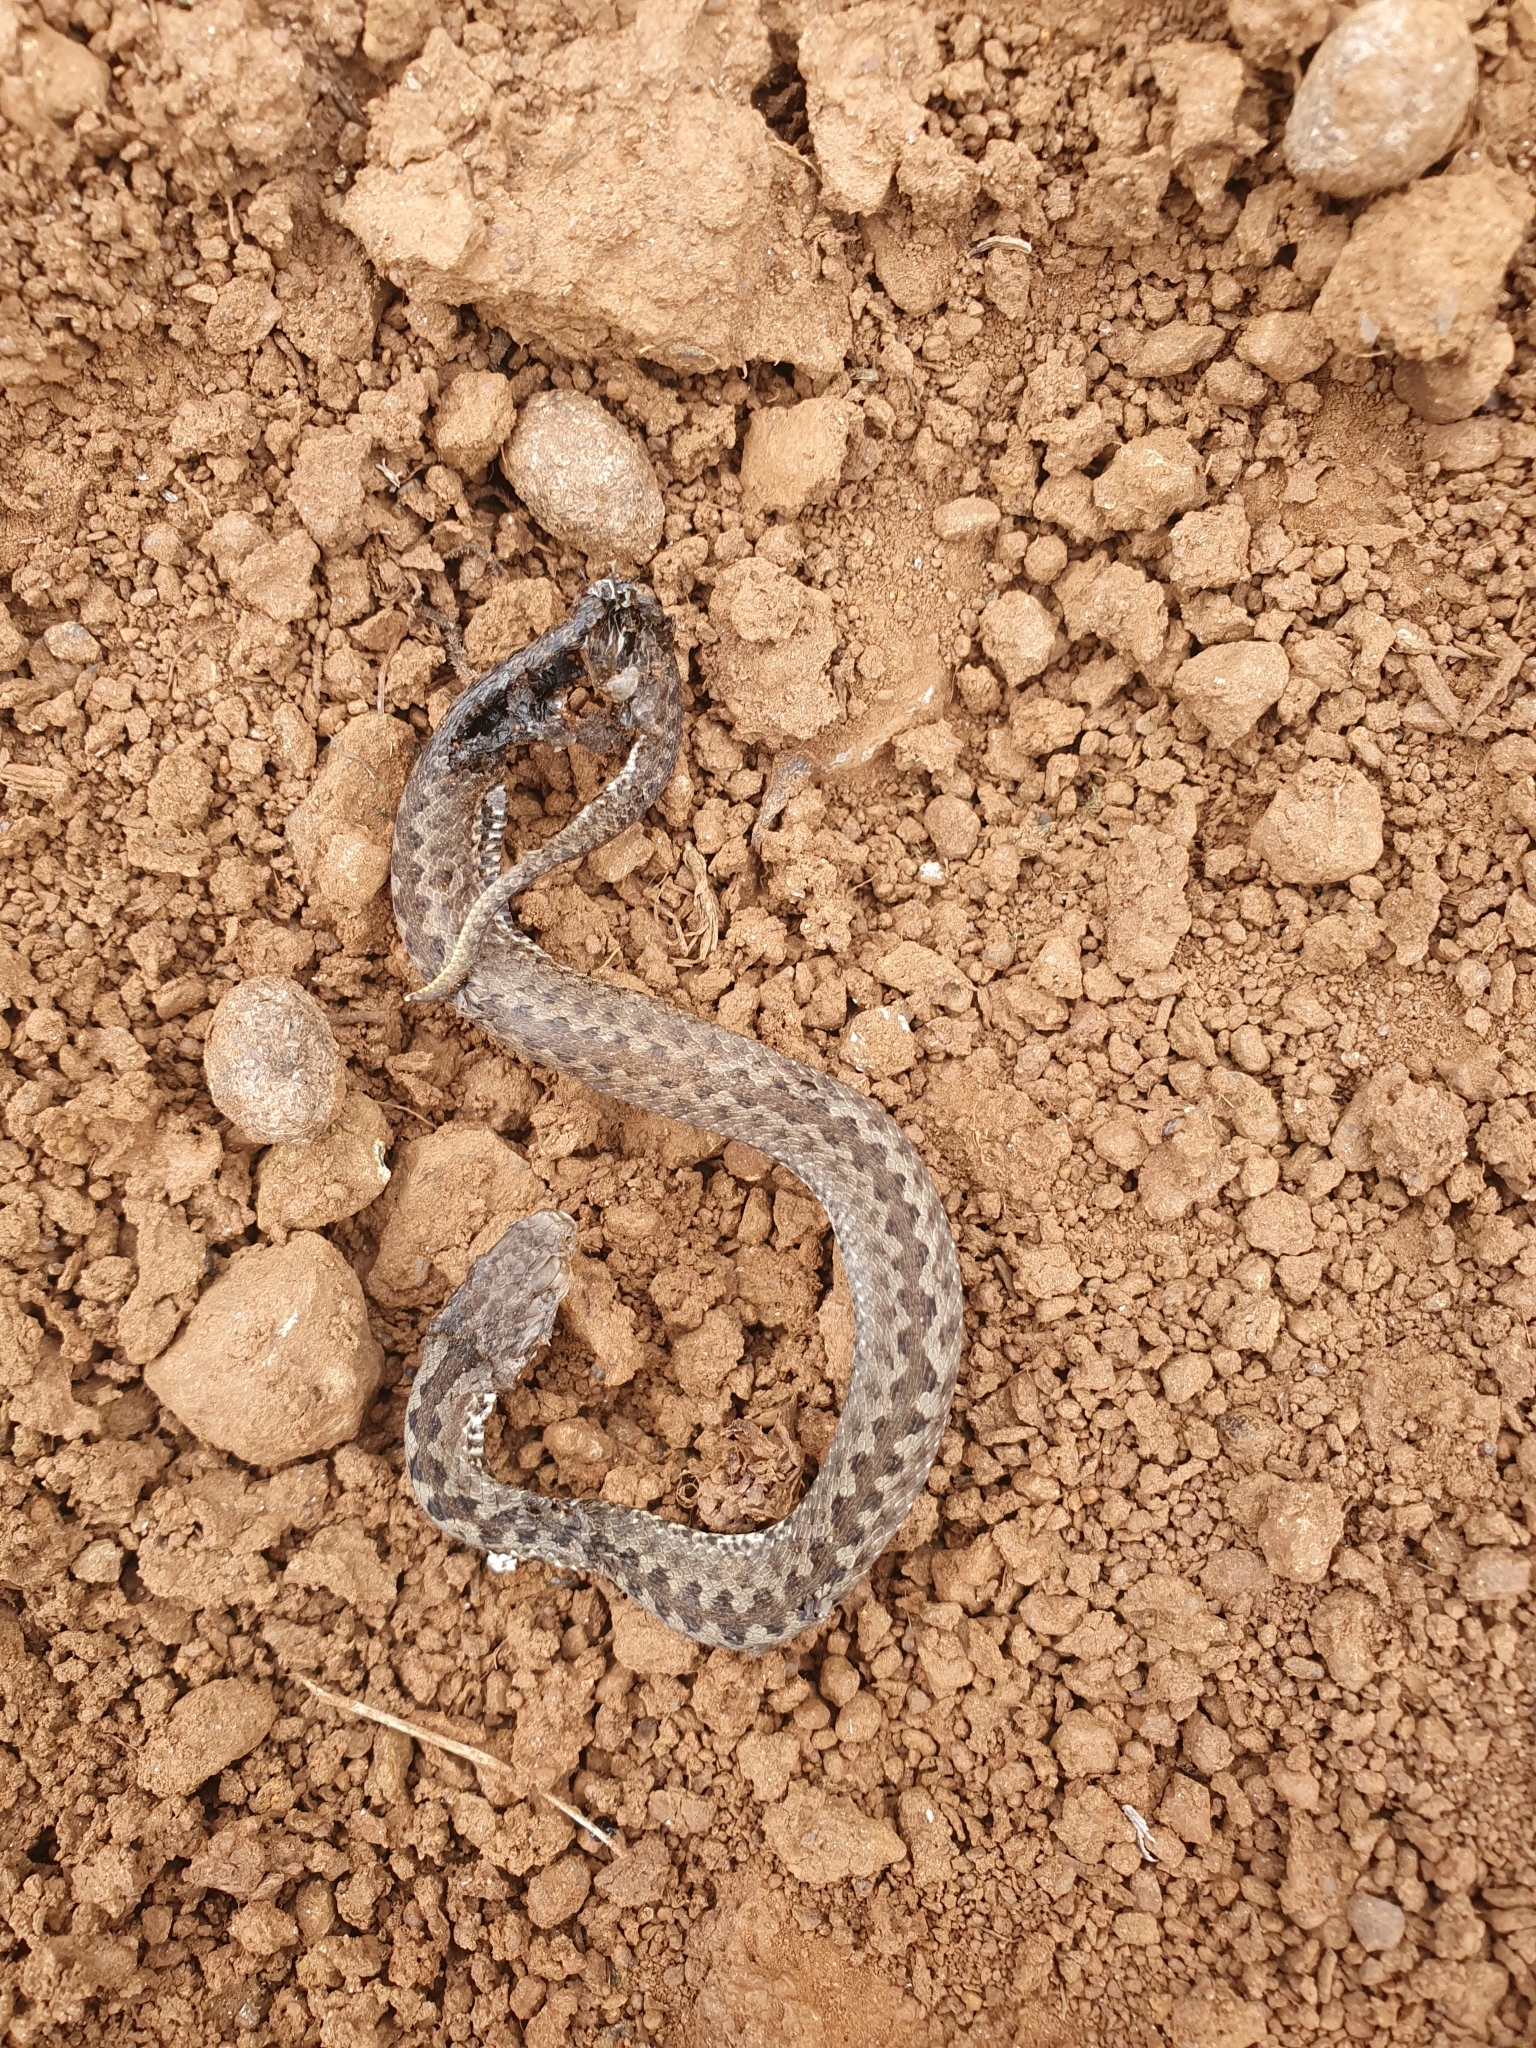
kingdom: Animalia
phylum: Chordata
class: Squamata
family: Viperidae
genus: Vipera
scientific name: Vipera seoanei
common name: Portugese viper
